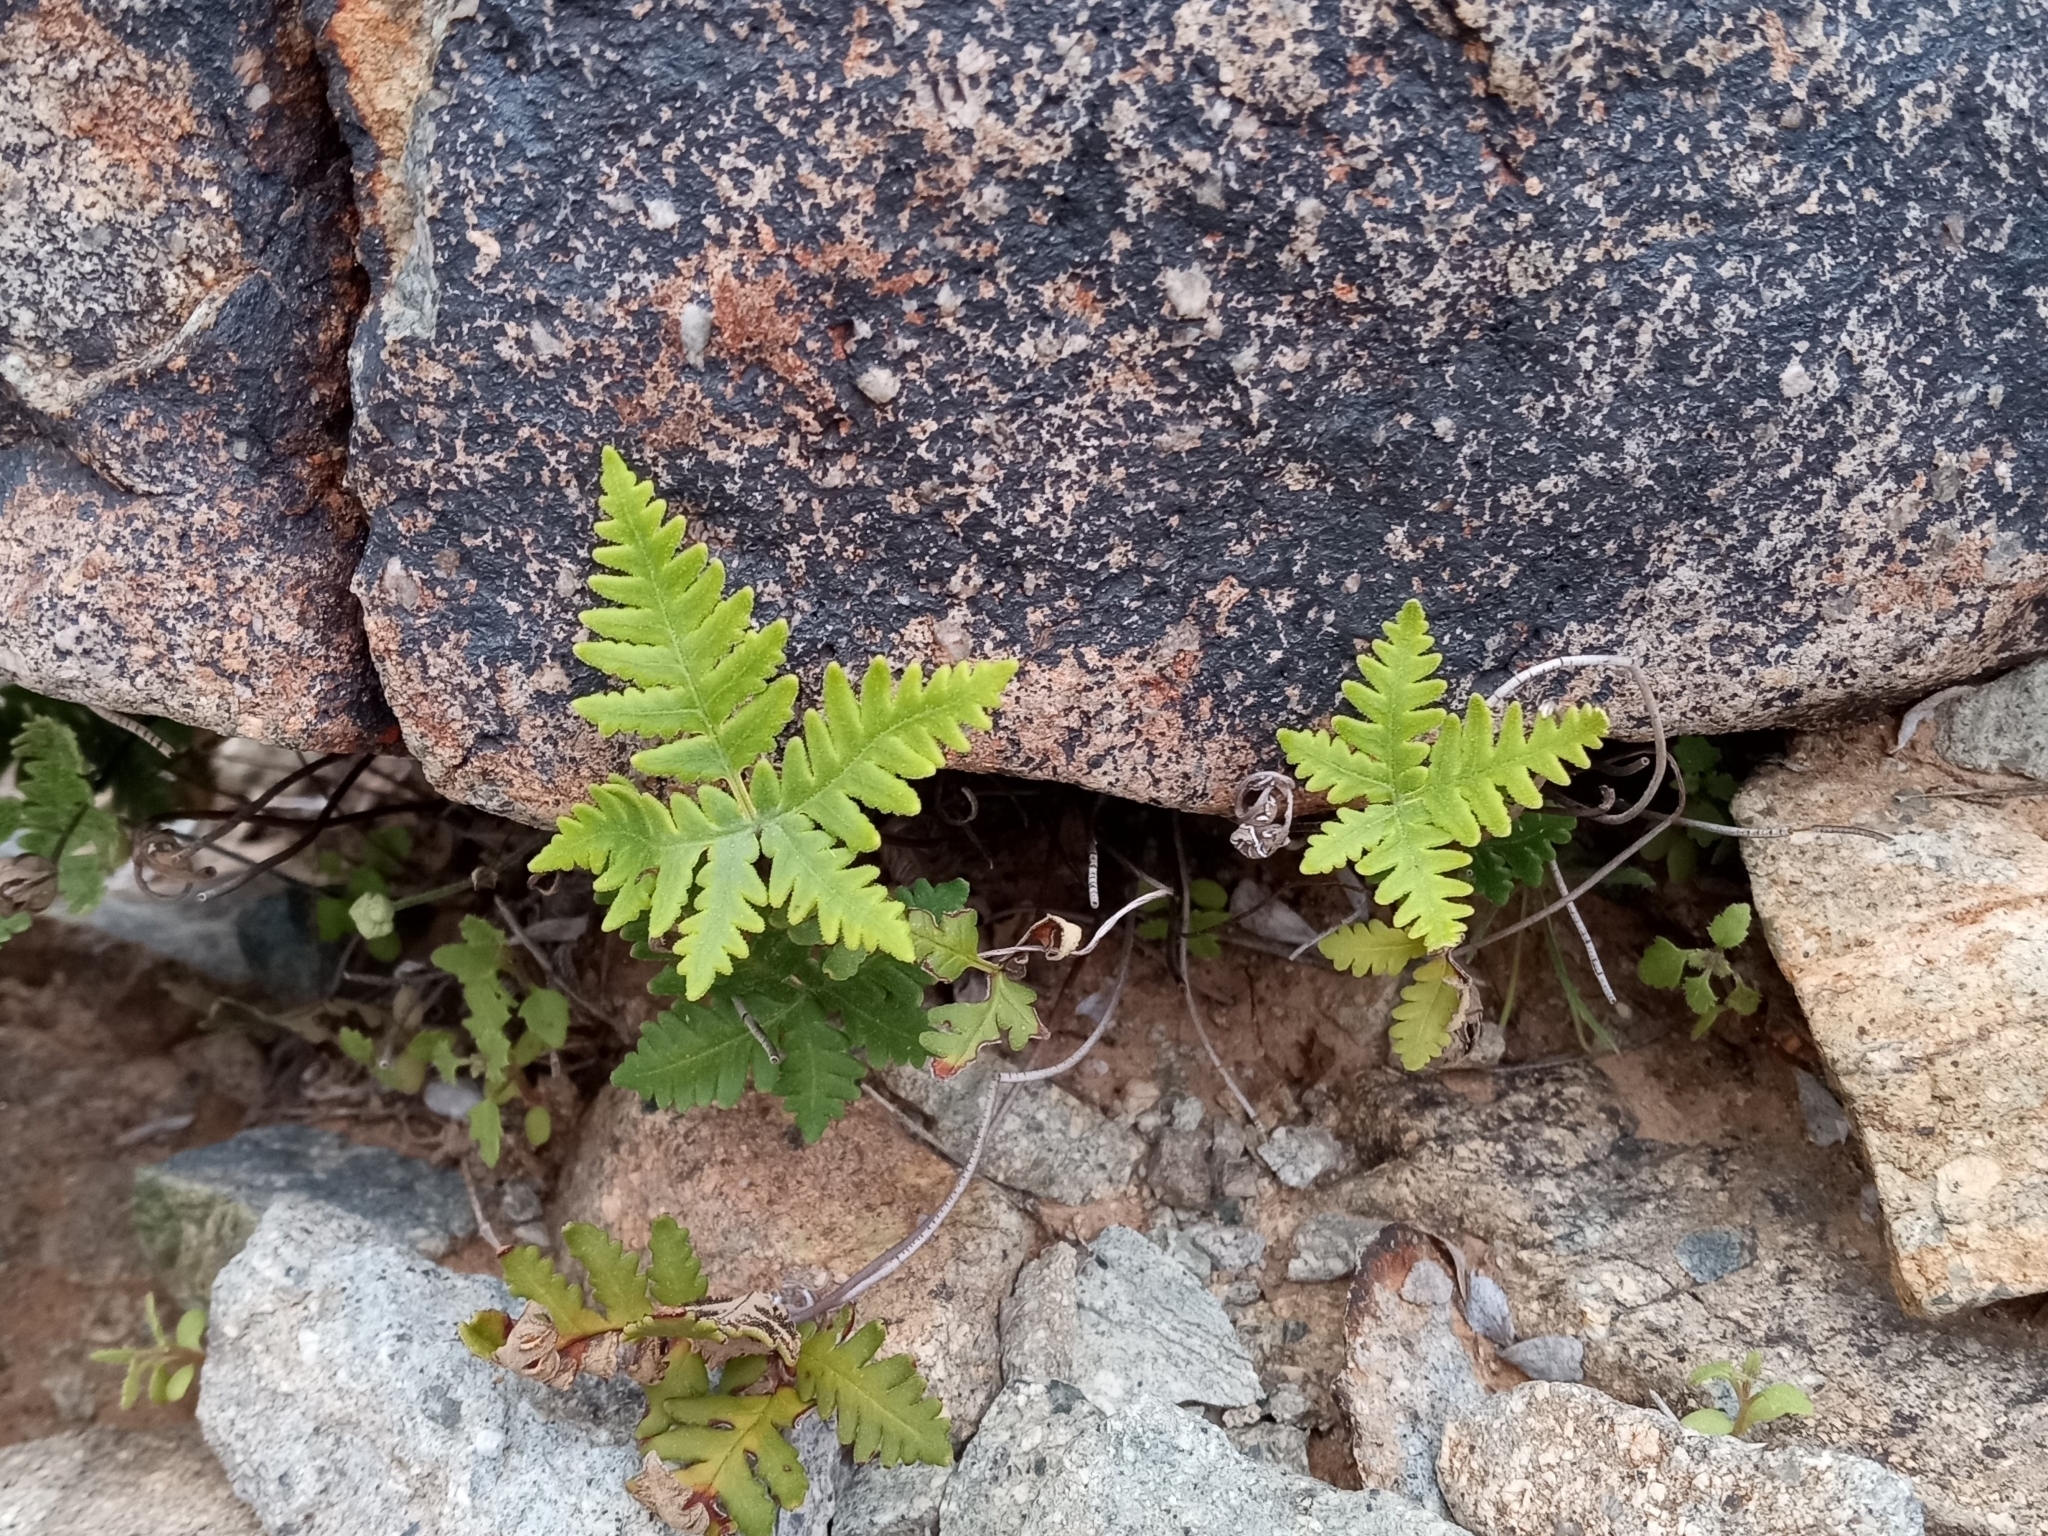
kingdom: Plantae
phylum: Tracheophyta
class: Polypodiopsida
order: Polypodiales
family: Pteridaceae
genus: Notholaena
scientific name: Notholaena standleyi
